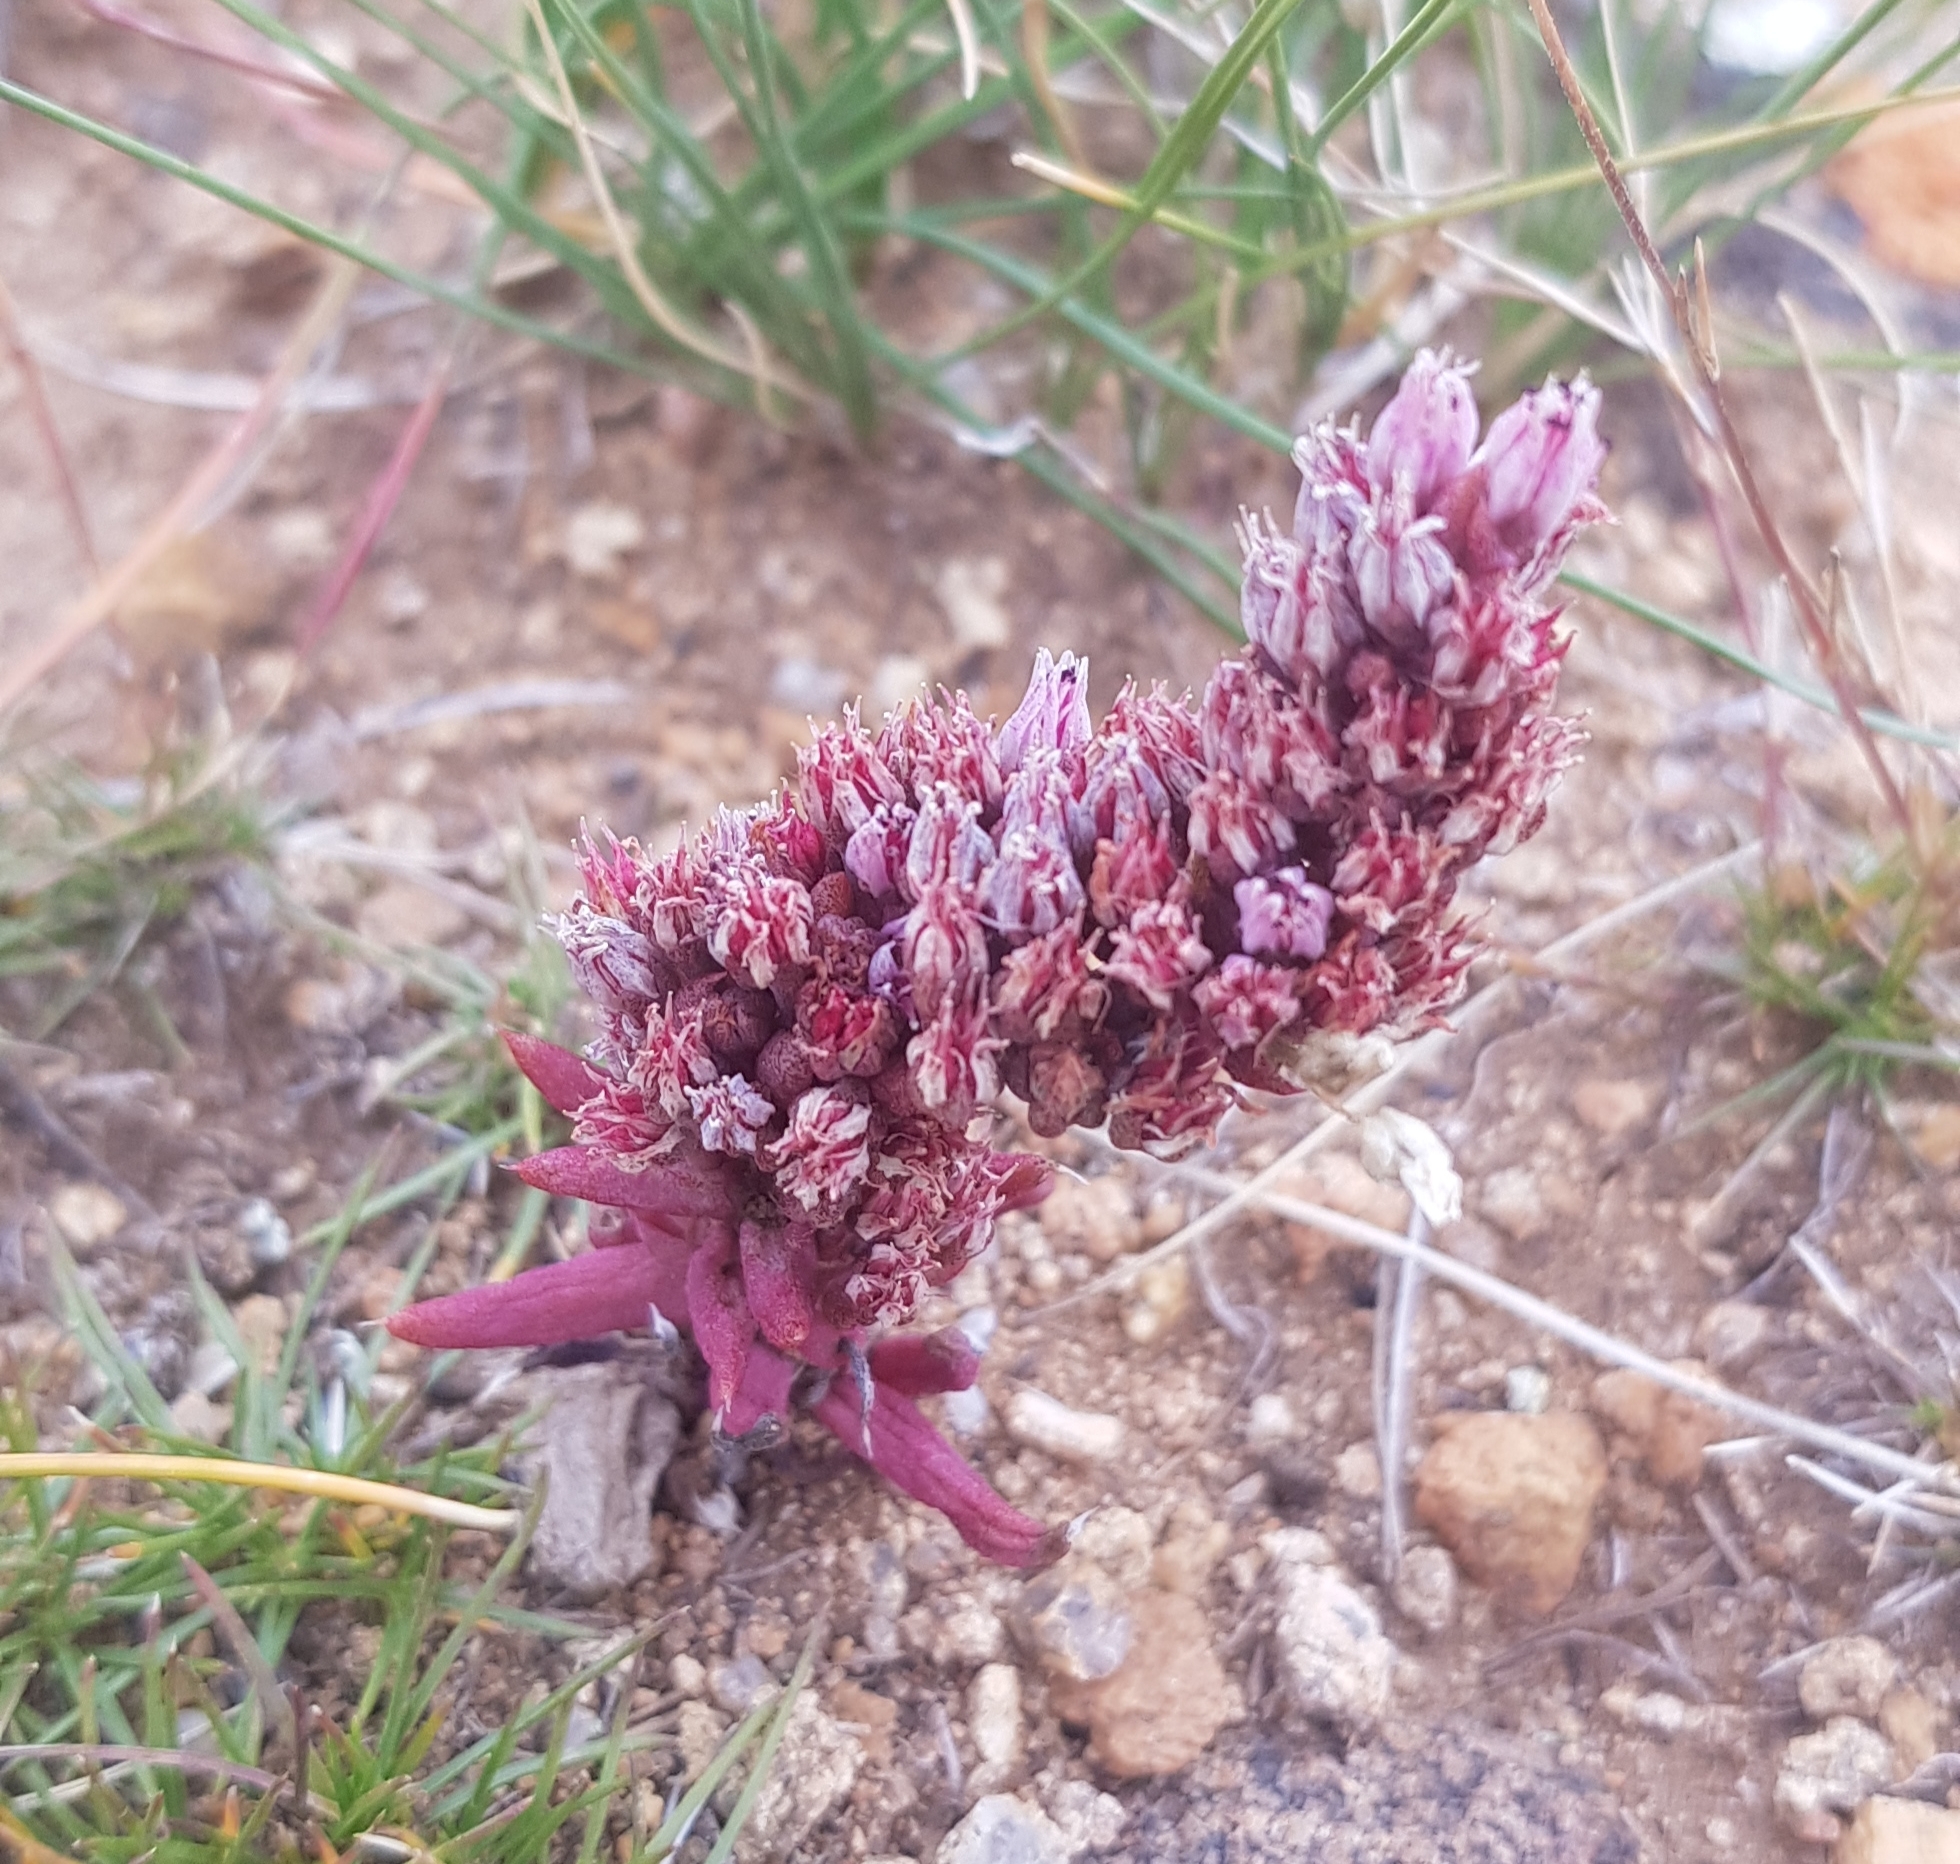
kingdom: Plantae
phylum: Tracheophyta
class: Magnoliopsida
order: Saxifragales
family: Crassulaceae
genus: Orostachys
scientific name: Orostachys fimbriata
